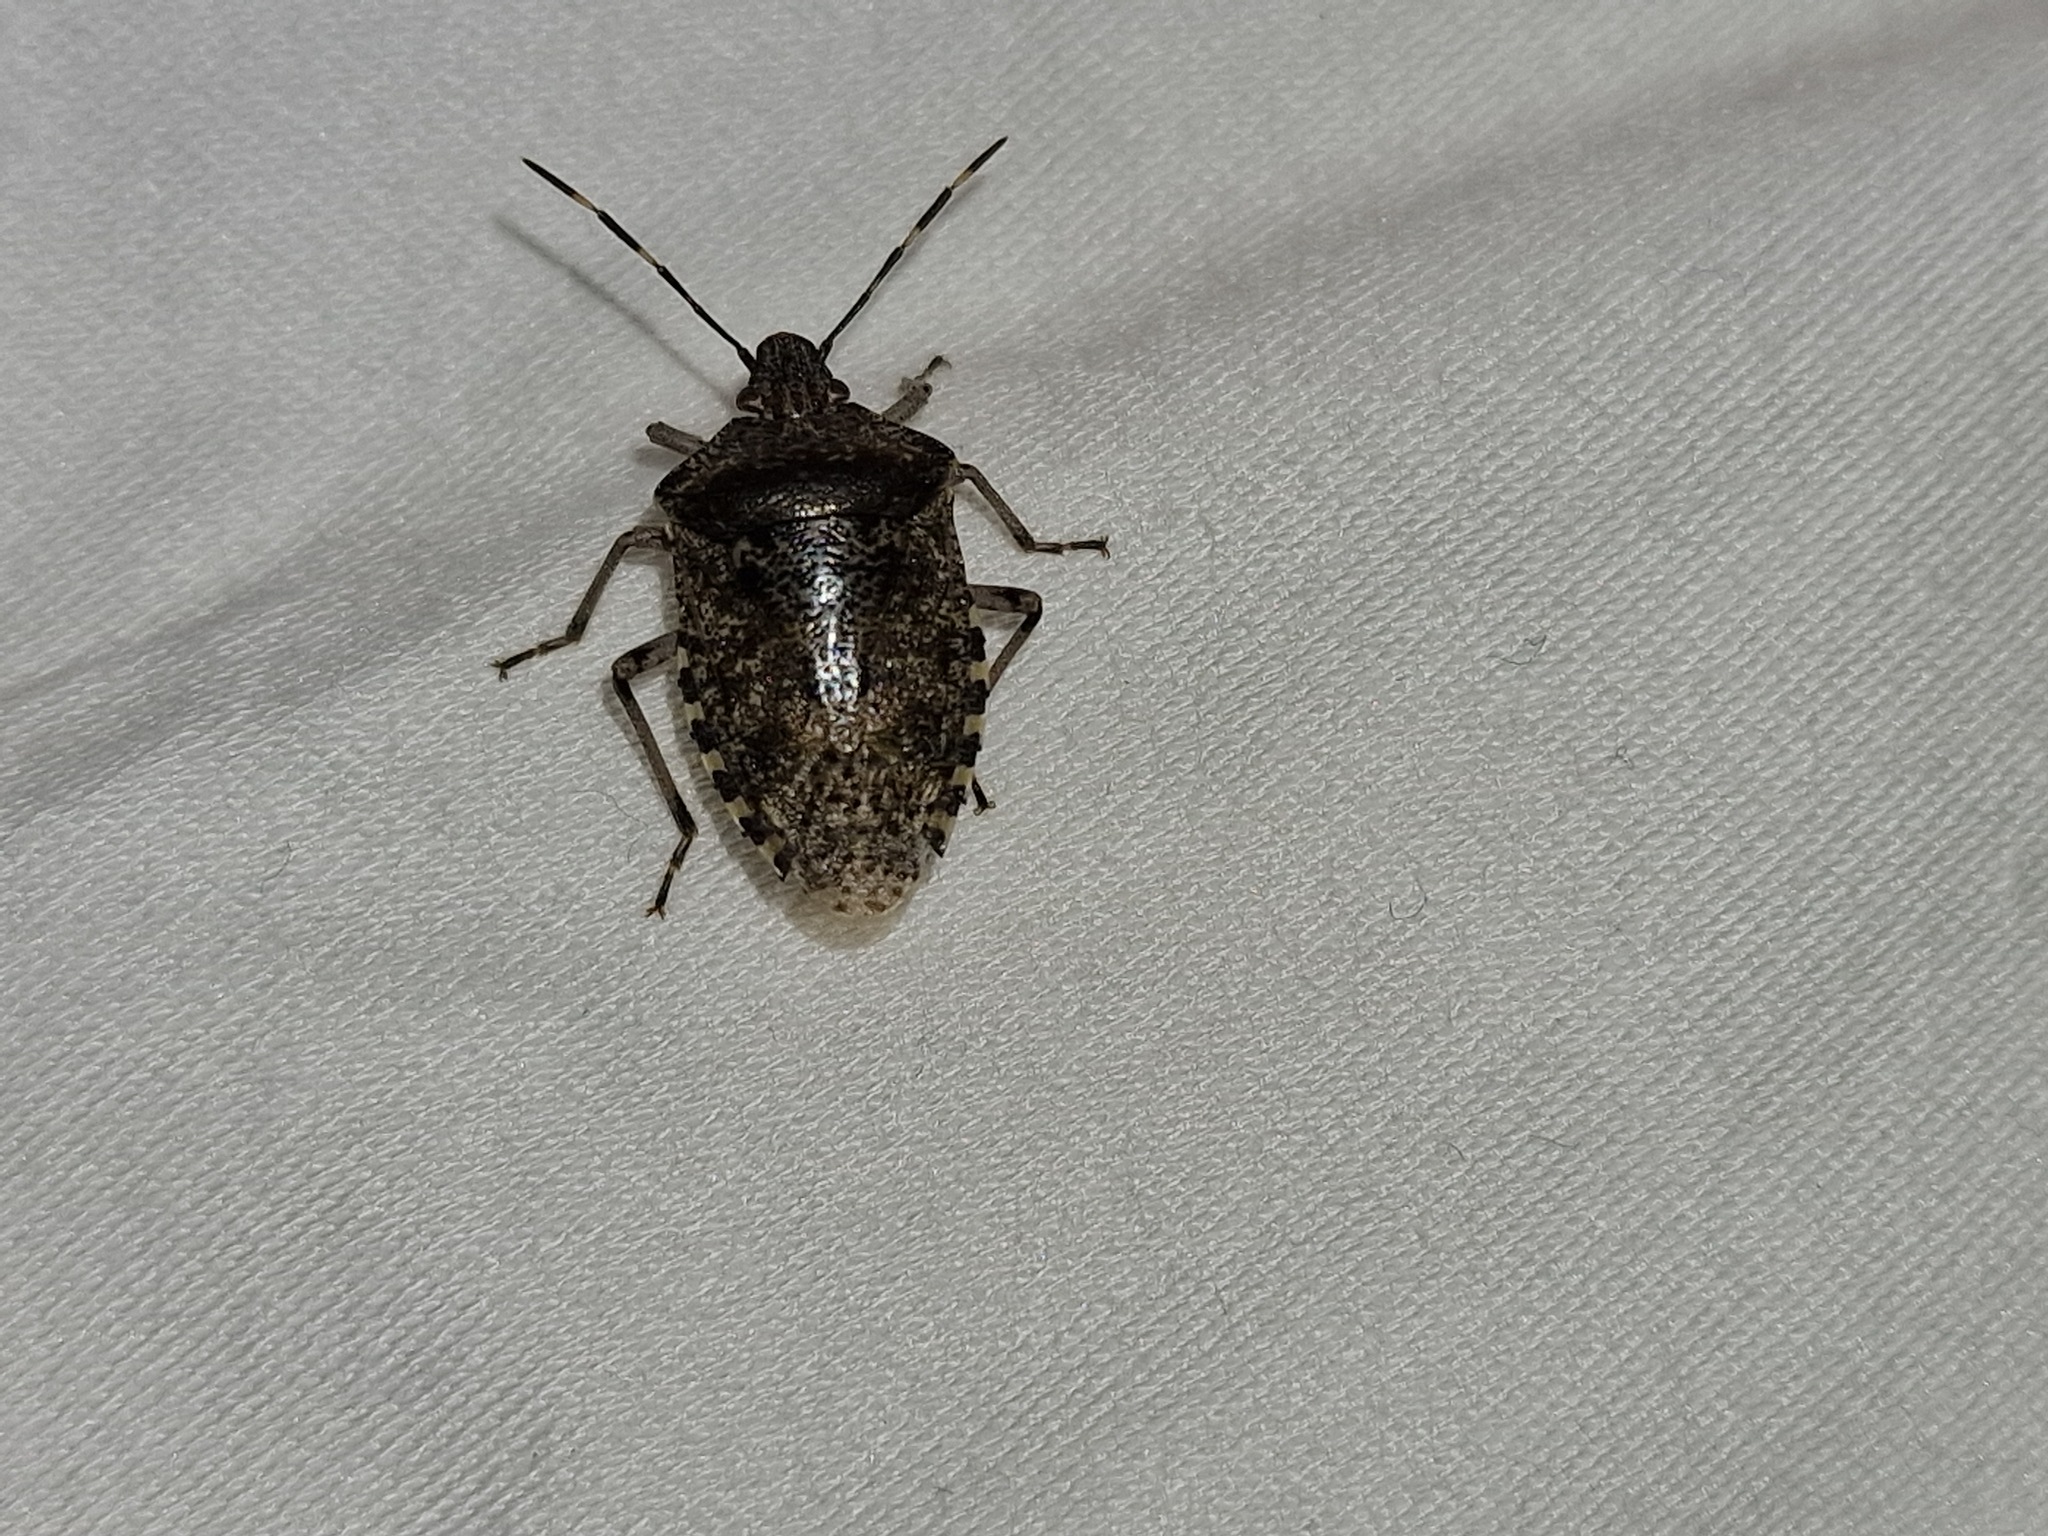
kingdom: Animalia
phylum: Arthropoda
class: Insecta
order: Hemiptera
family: Pentatomidae
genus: Rhaphigaster
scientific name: Rhaphigaster nebulosa
